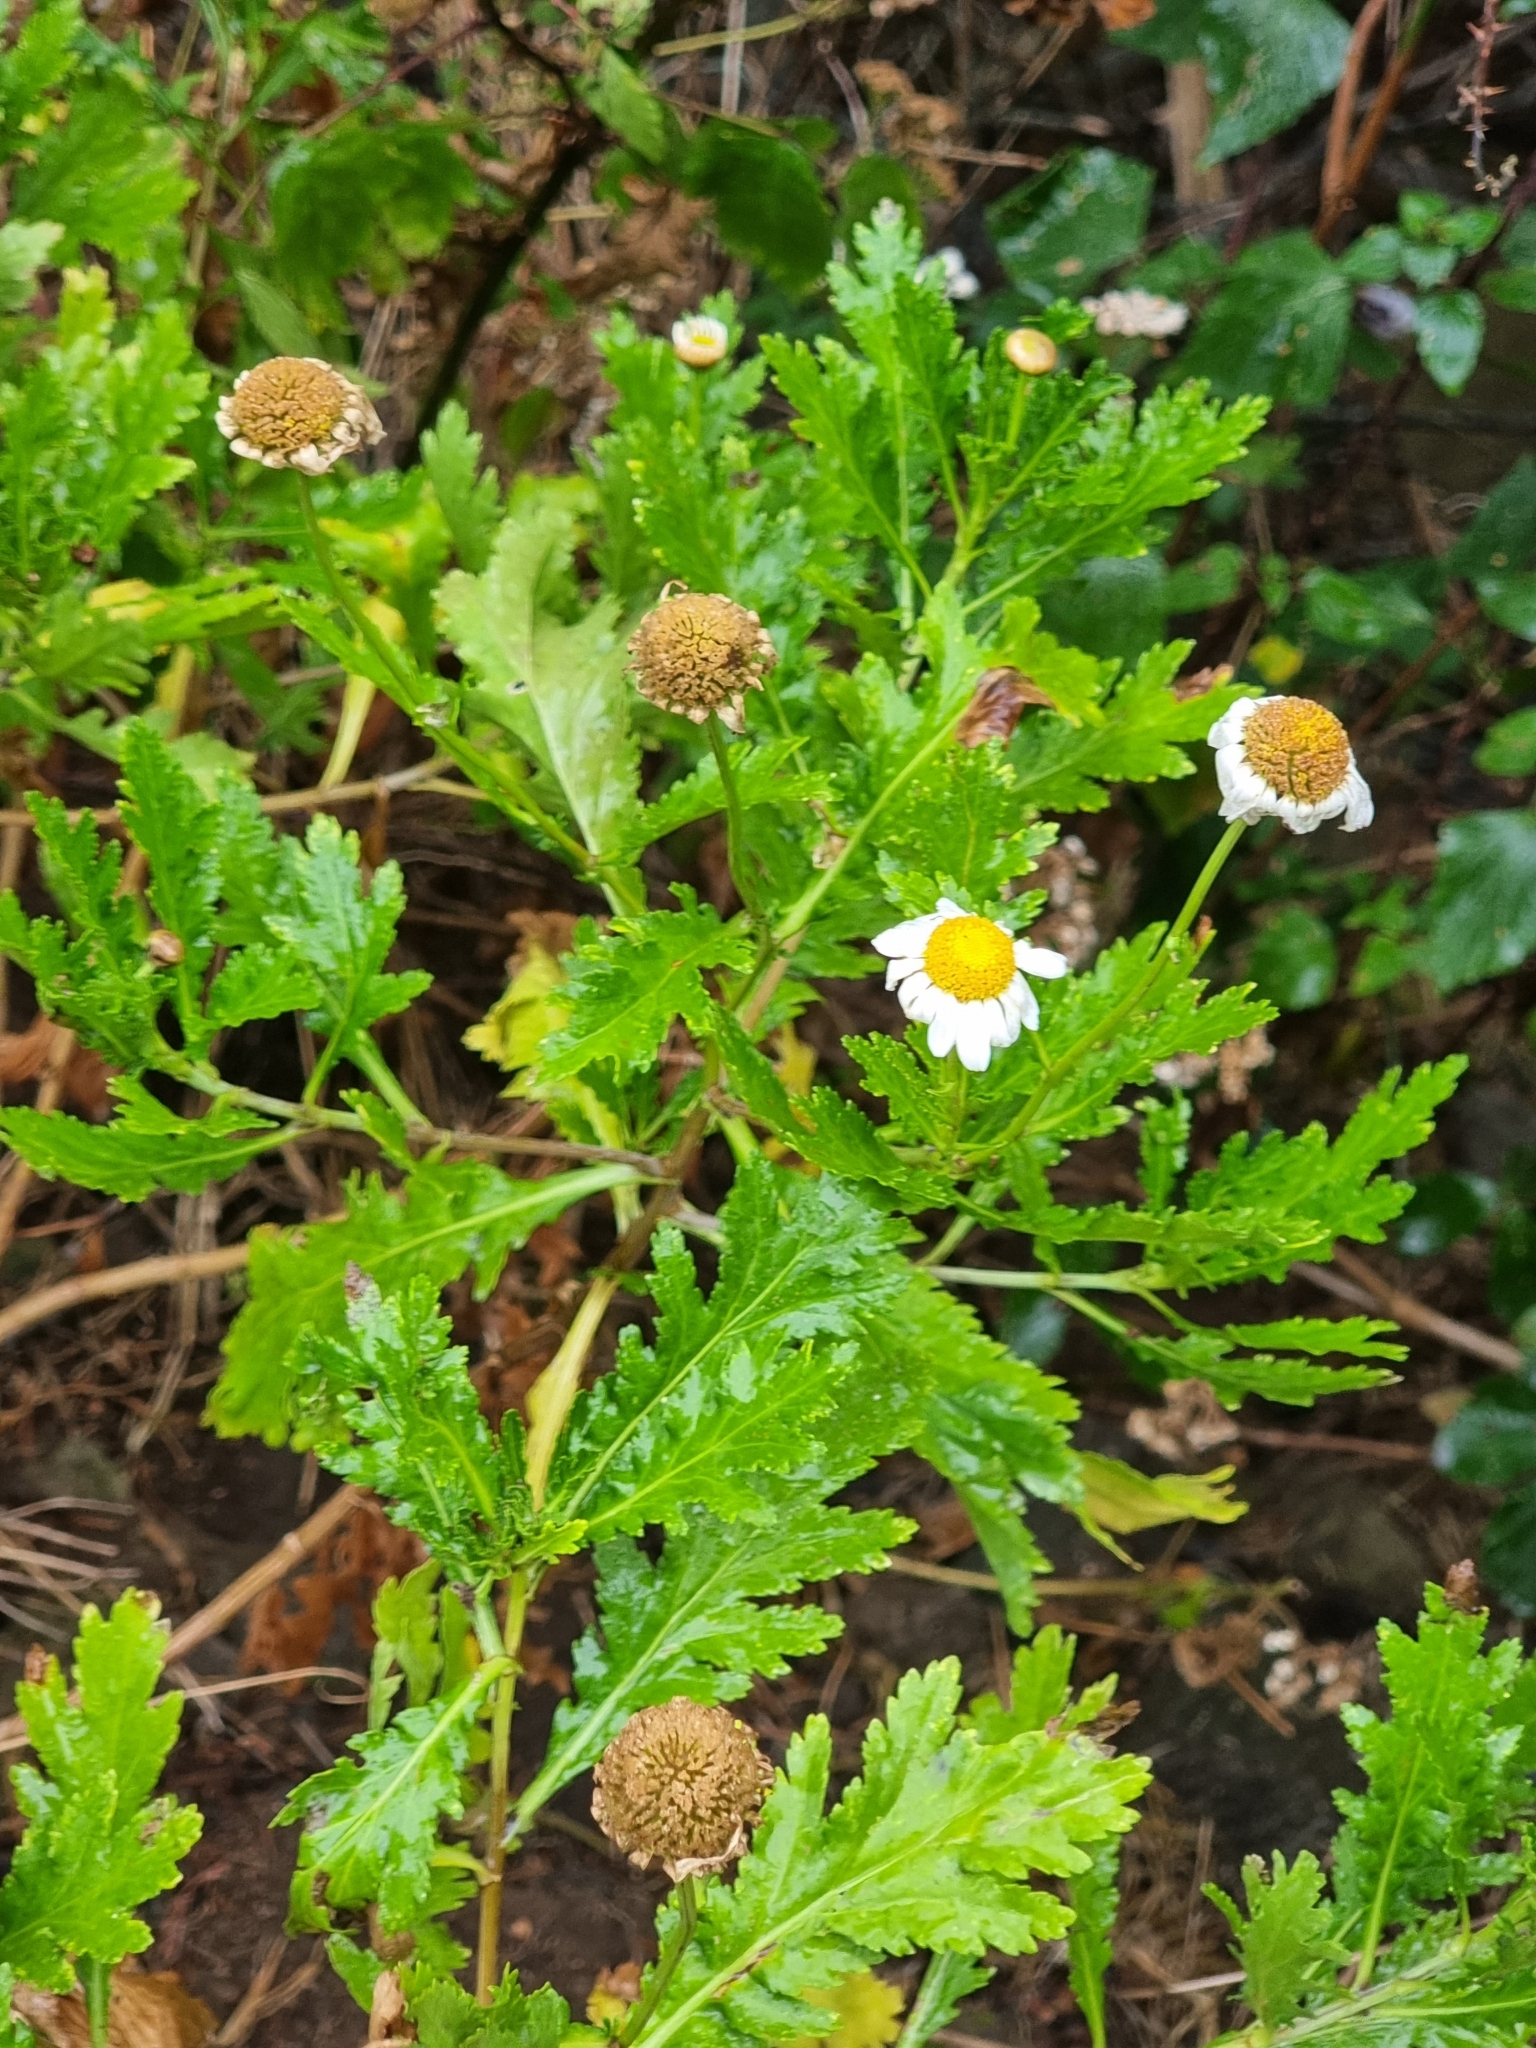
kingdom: Plantae
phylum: Tracheophyta
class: Magnoliopsida
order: Asterales
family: Asteraceae
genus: Argyranthemum
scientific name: Argyranthemum pinnatifidum
